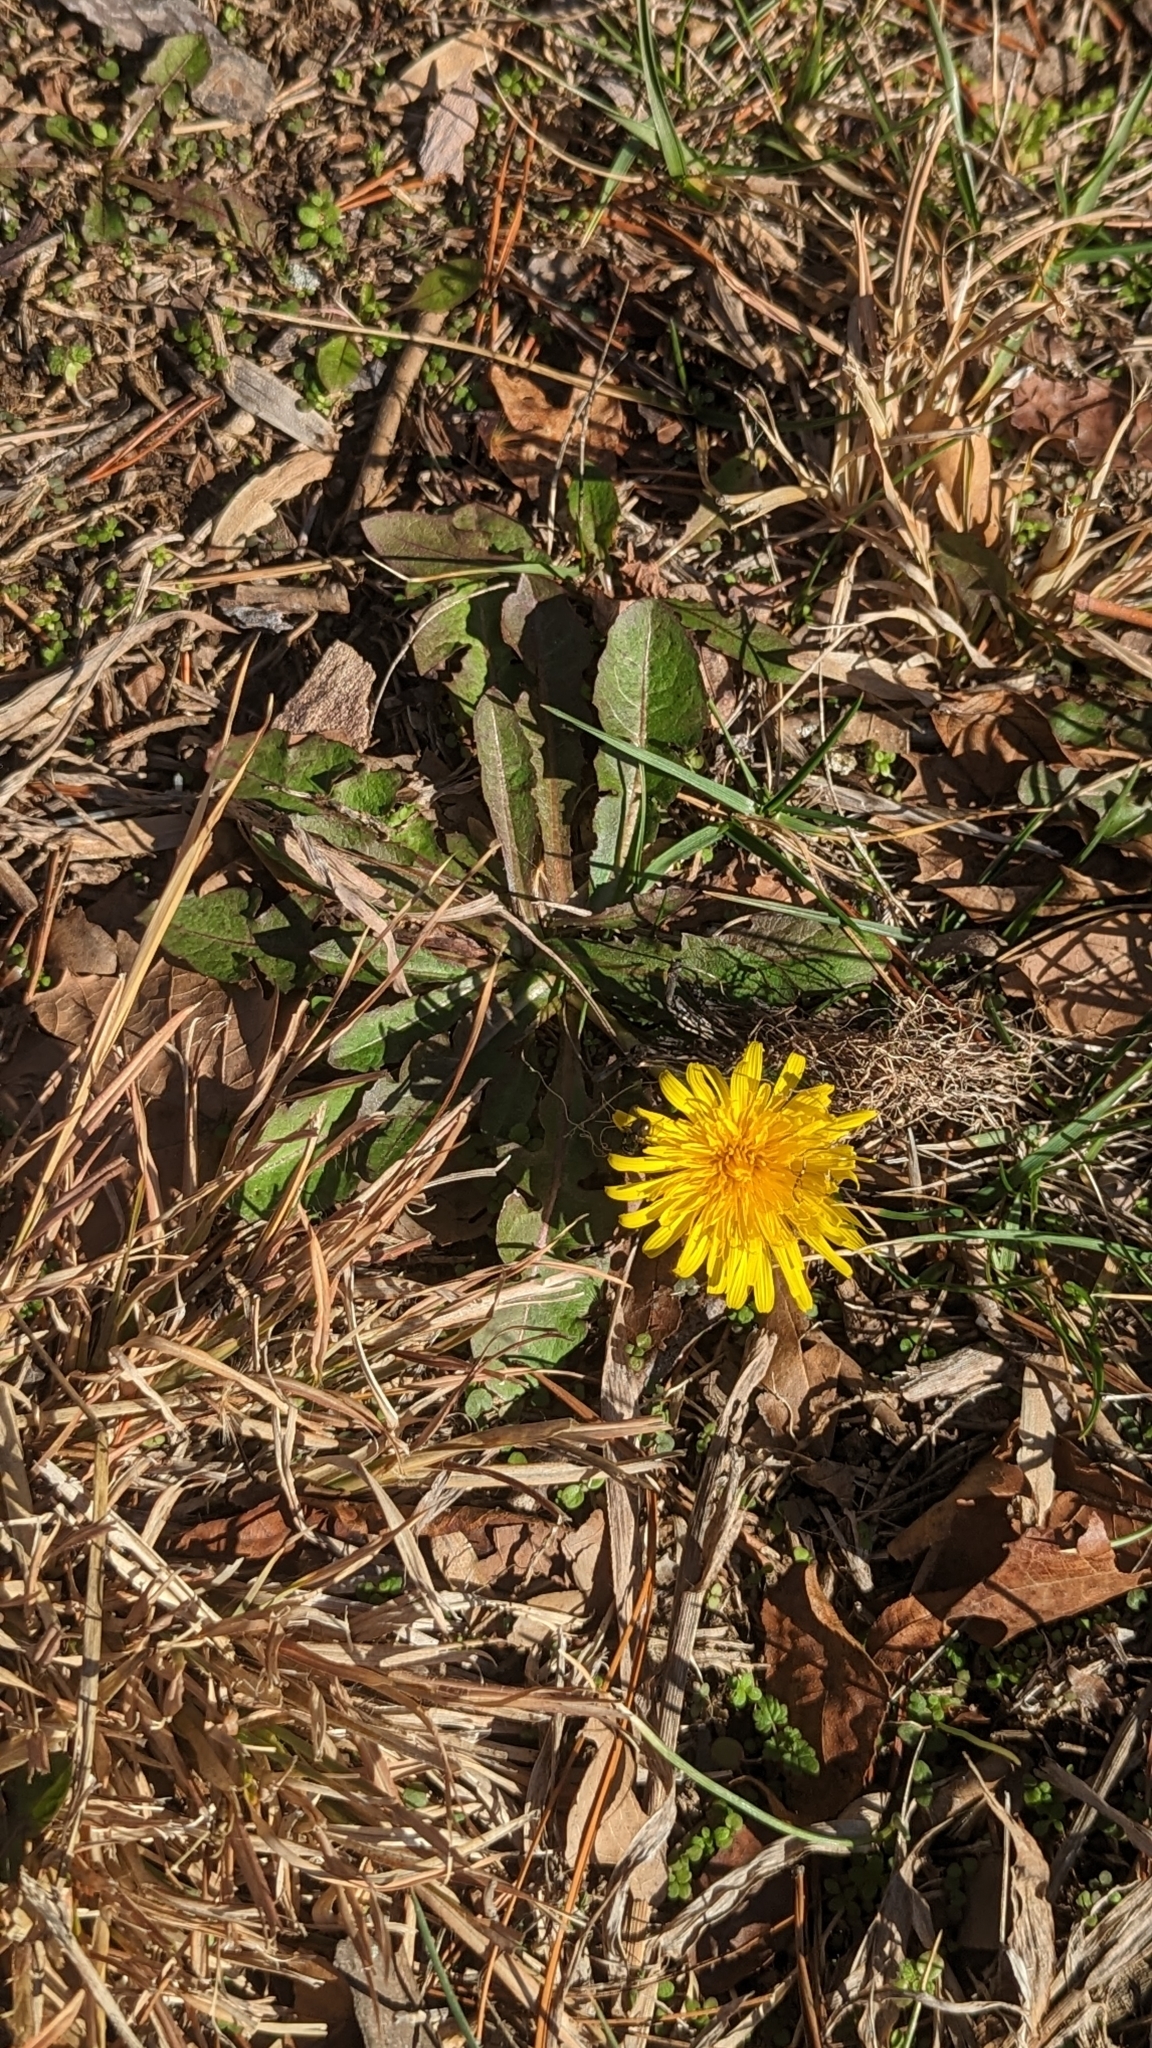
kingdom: Plantae
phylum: Tracheophyta
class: Magnoliopsida
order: Asterales
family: Asteraceae
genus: Taraxacum
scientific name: Taraxacum officinale
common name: Common dandelion
